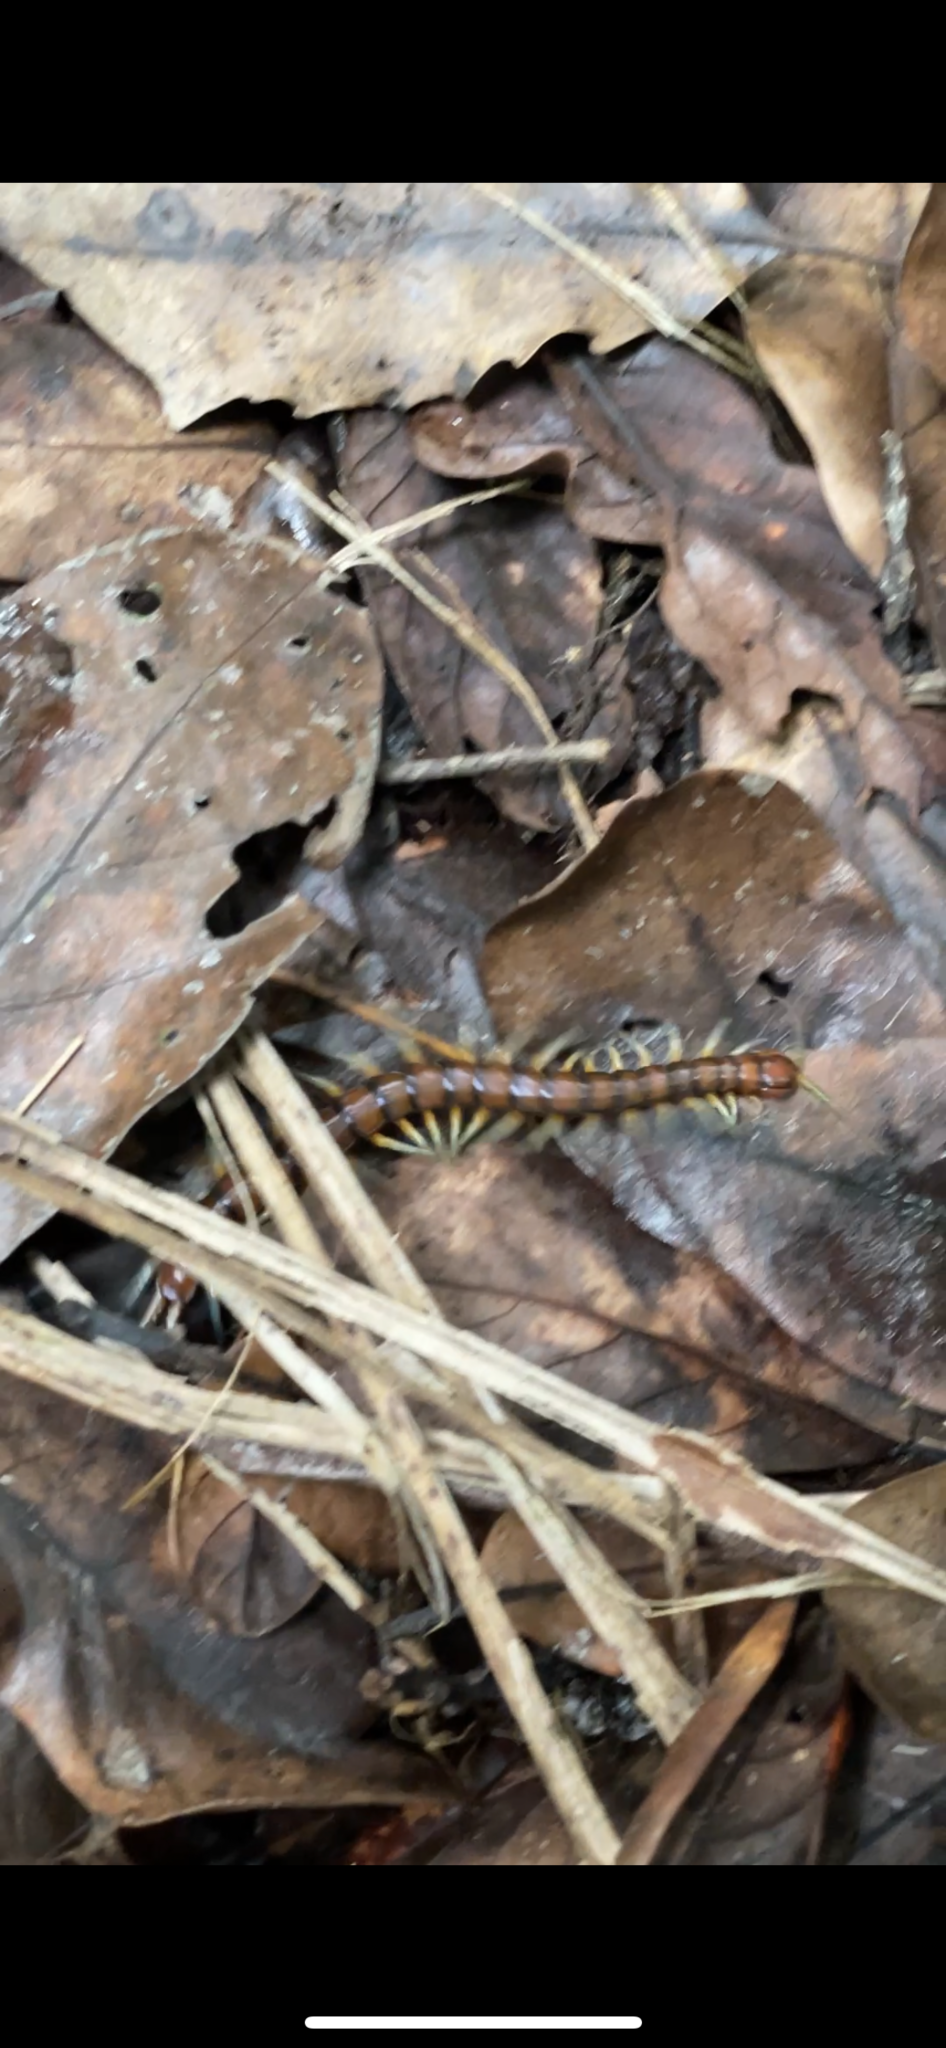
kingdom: Animalia
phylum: Arthropoda
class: Chilopoda
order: Scolopendromorpha
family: Scolopendridae
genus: Cormocephalus
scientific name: Cormocephalus rubriceps
